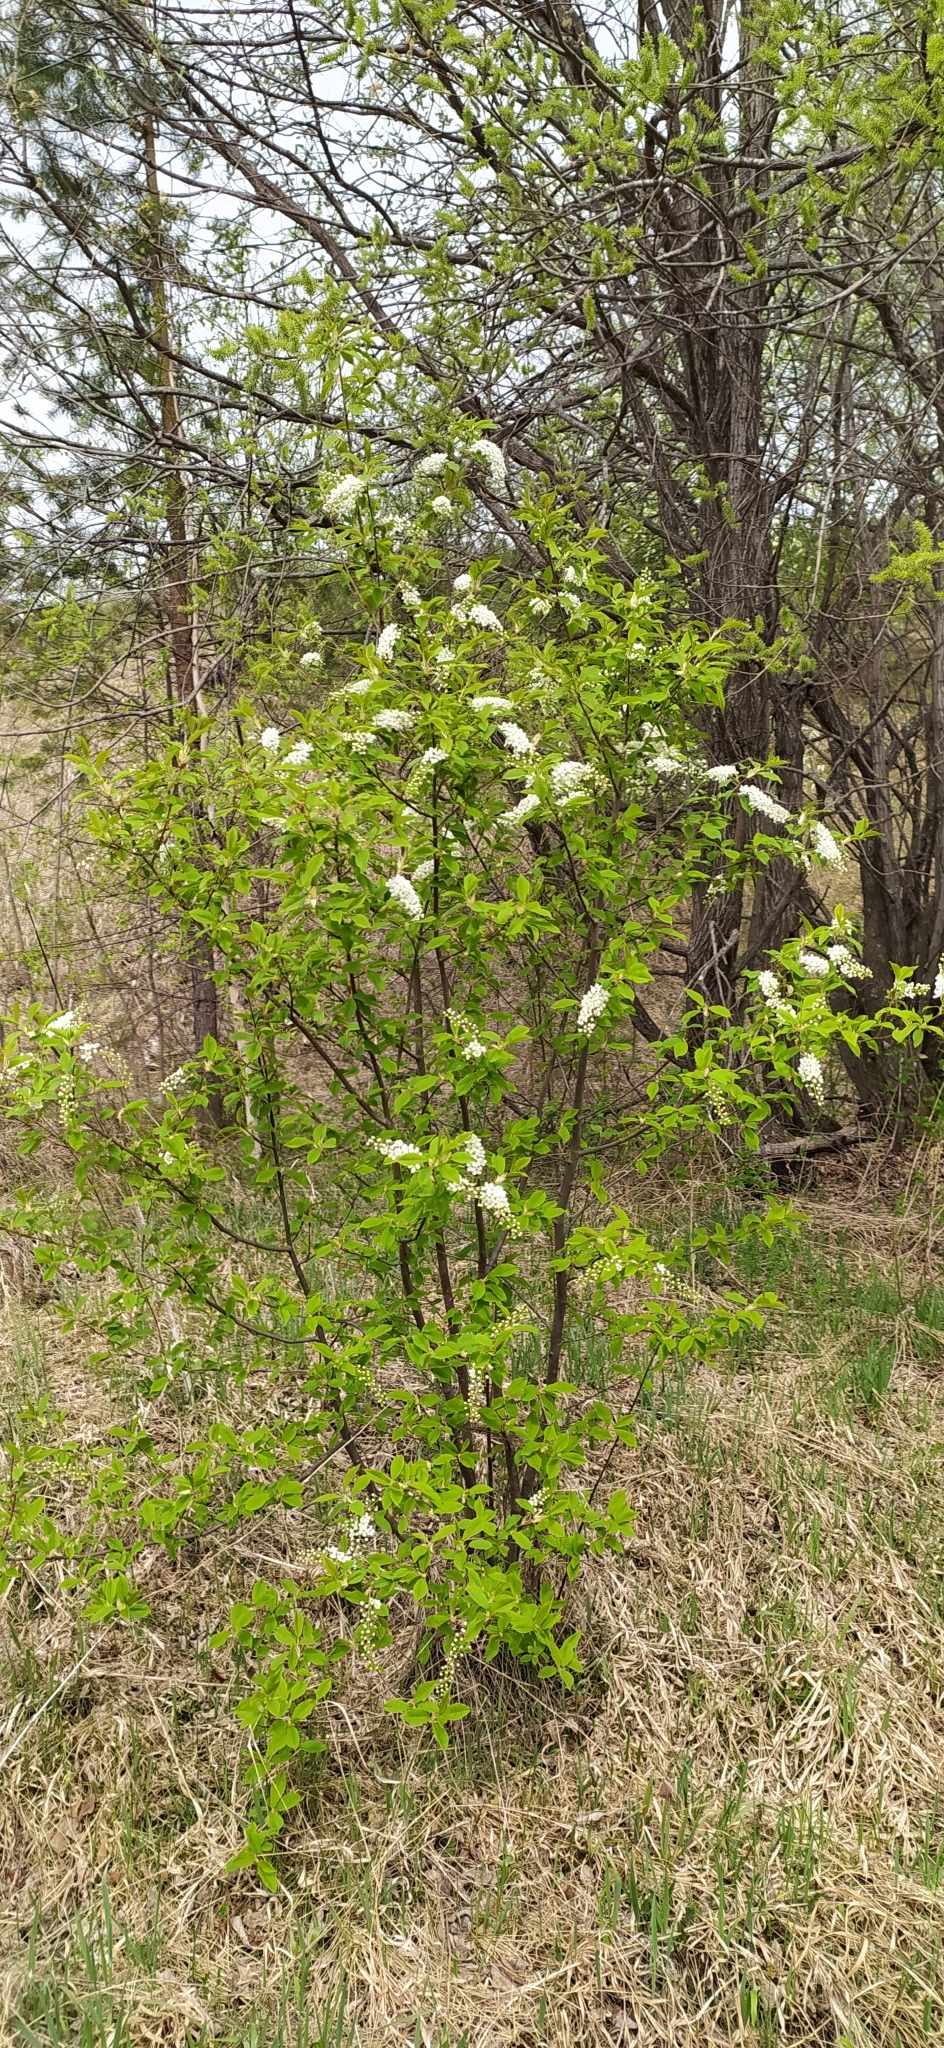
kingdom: Plantae
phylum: Tracheophyta
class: Magnoliopsida
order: Rosales
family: Rosaceae
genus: Prunus
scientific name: Prunus padus
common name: Bird cherry
